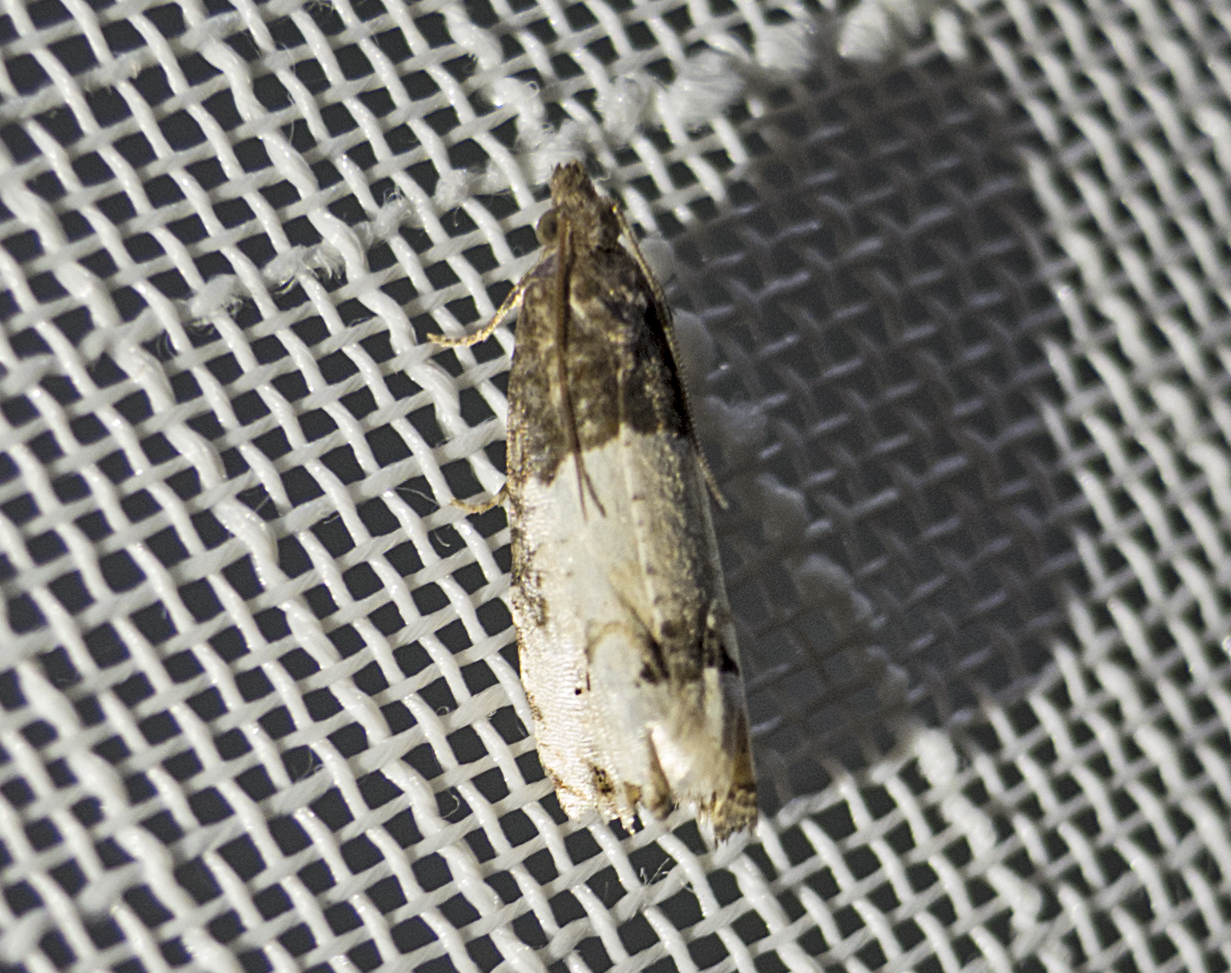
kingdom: Animalia
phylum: Arthropoda
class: Insecta
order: Lepidoptera
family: Tortricidae
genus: Epiblema
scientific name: Epiblema aquana
